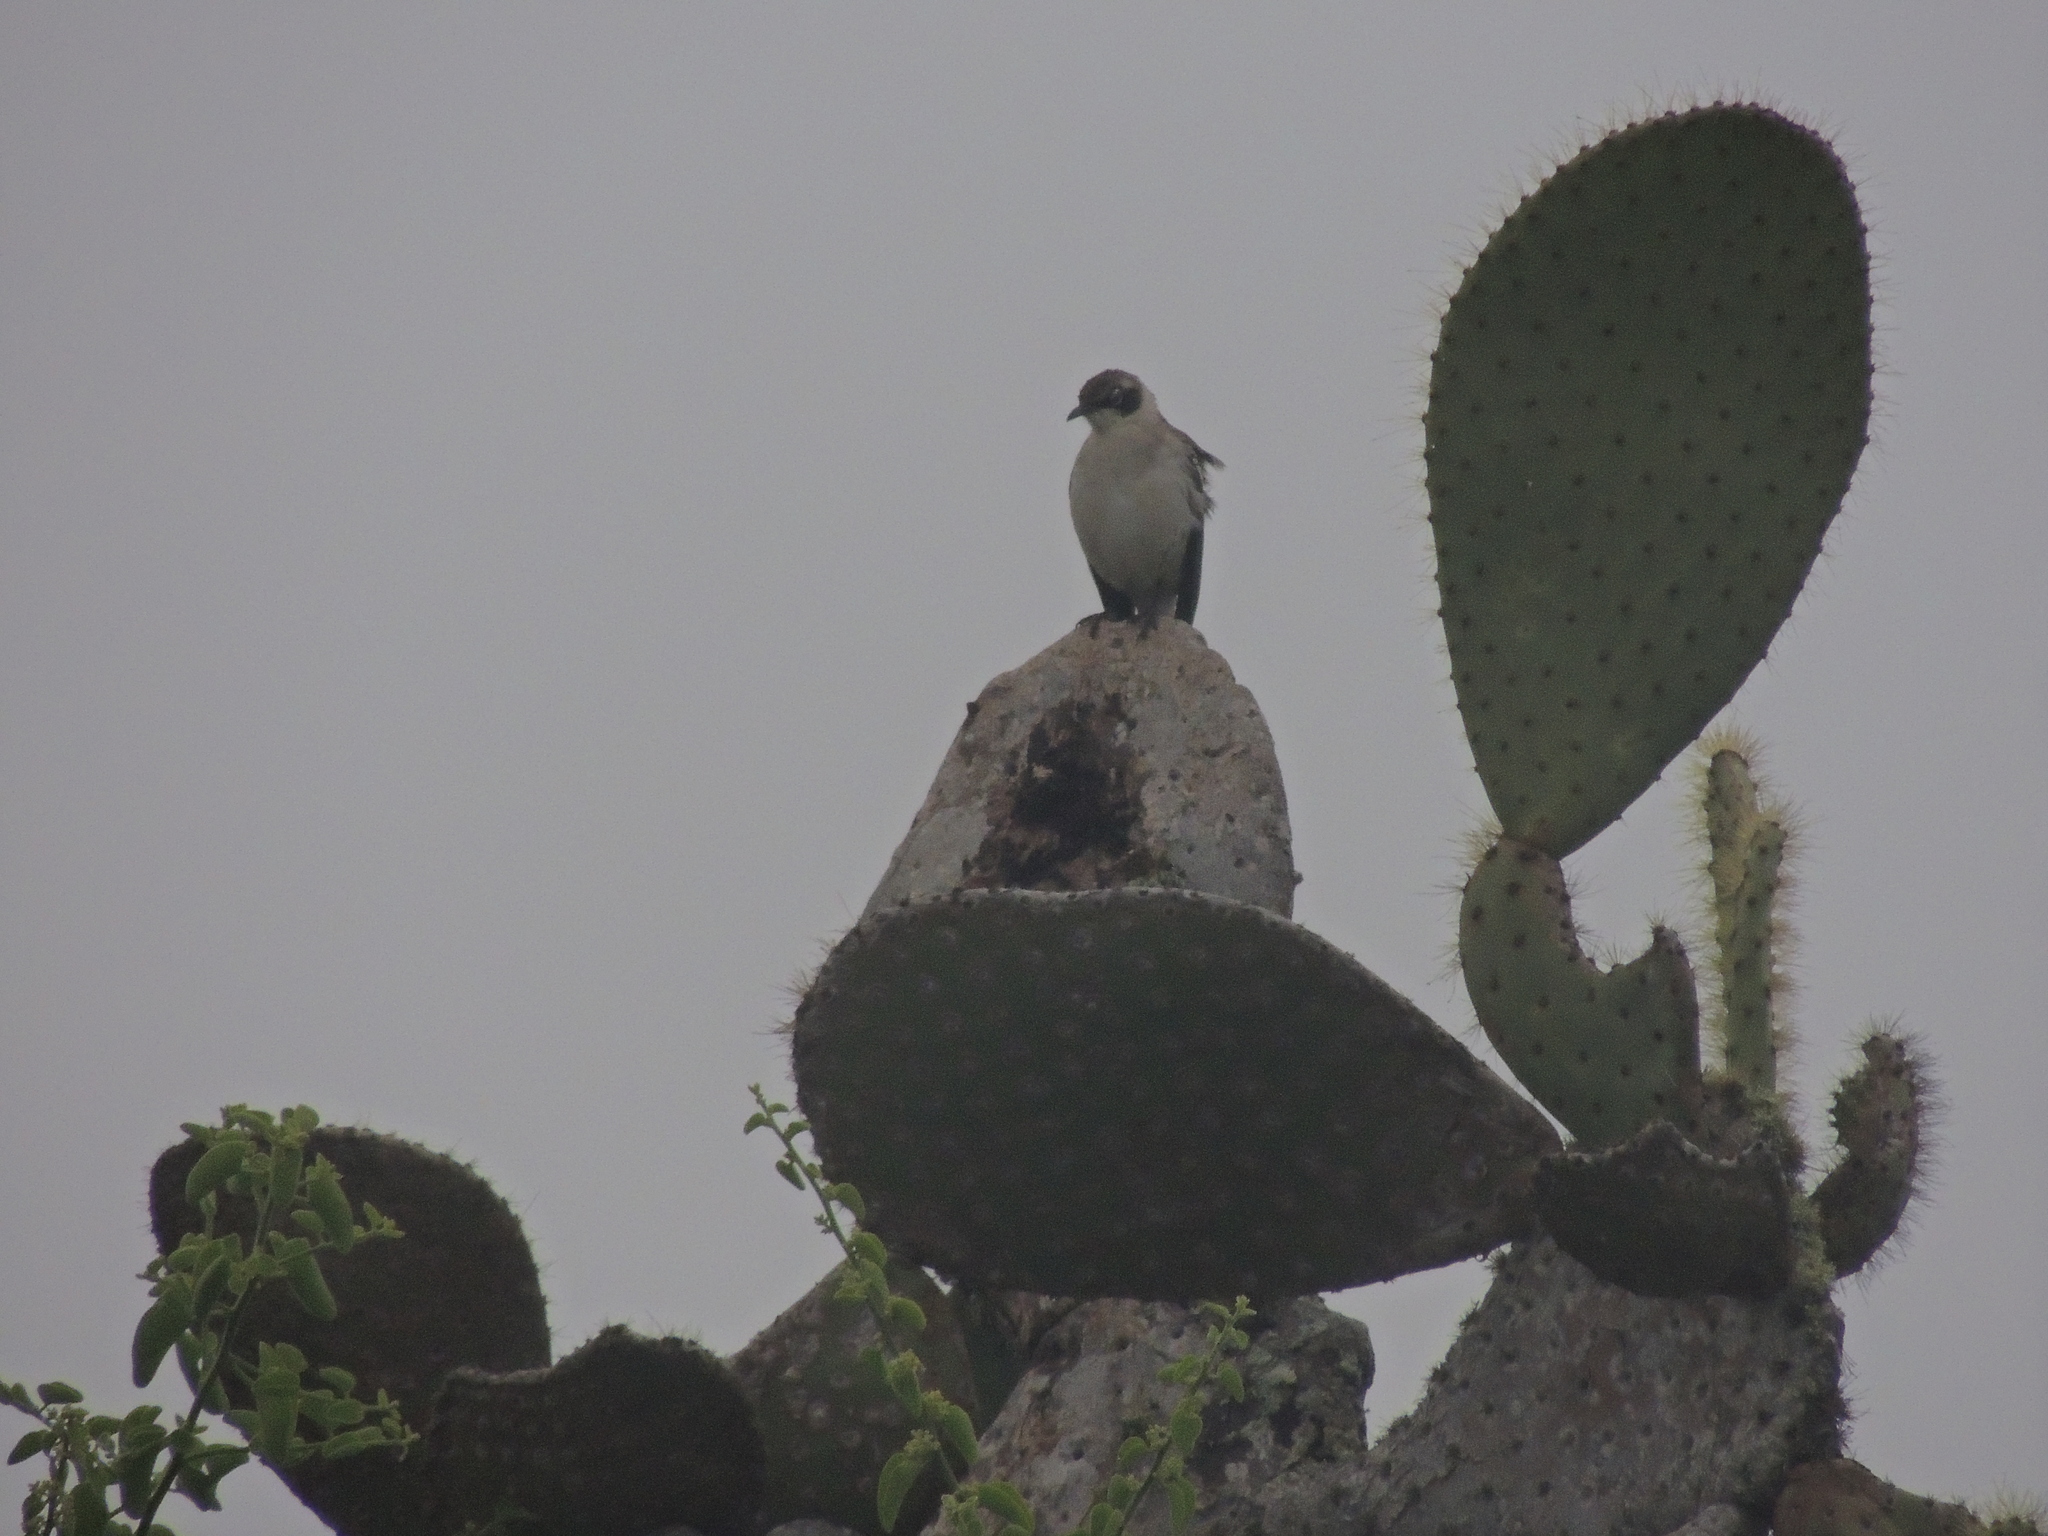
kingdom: Animalia
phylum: Chordata
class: Aves
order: Passeriformes
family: Mimidae
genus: Mimus
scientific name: Mimus parvulus
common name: Galapagos mockingbird
